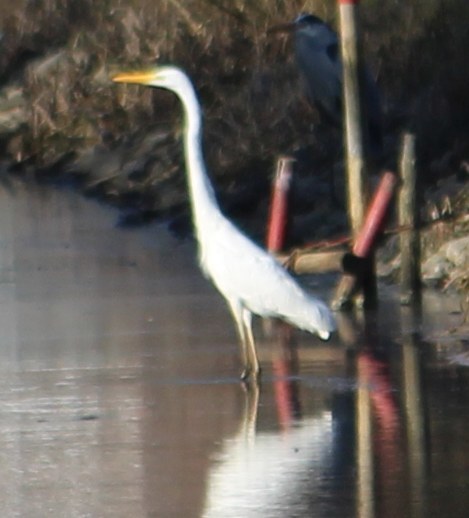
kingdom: Animalia
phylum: Chordata
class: Aves
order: Pelecaniformes
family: Ardeidae
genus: Ardea
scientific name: Ardea alba
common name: Great egret
